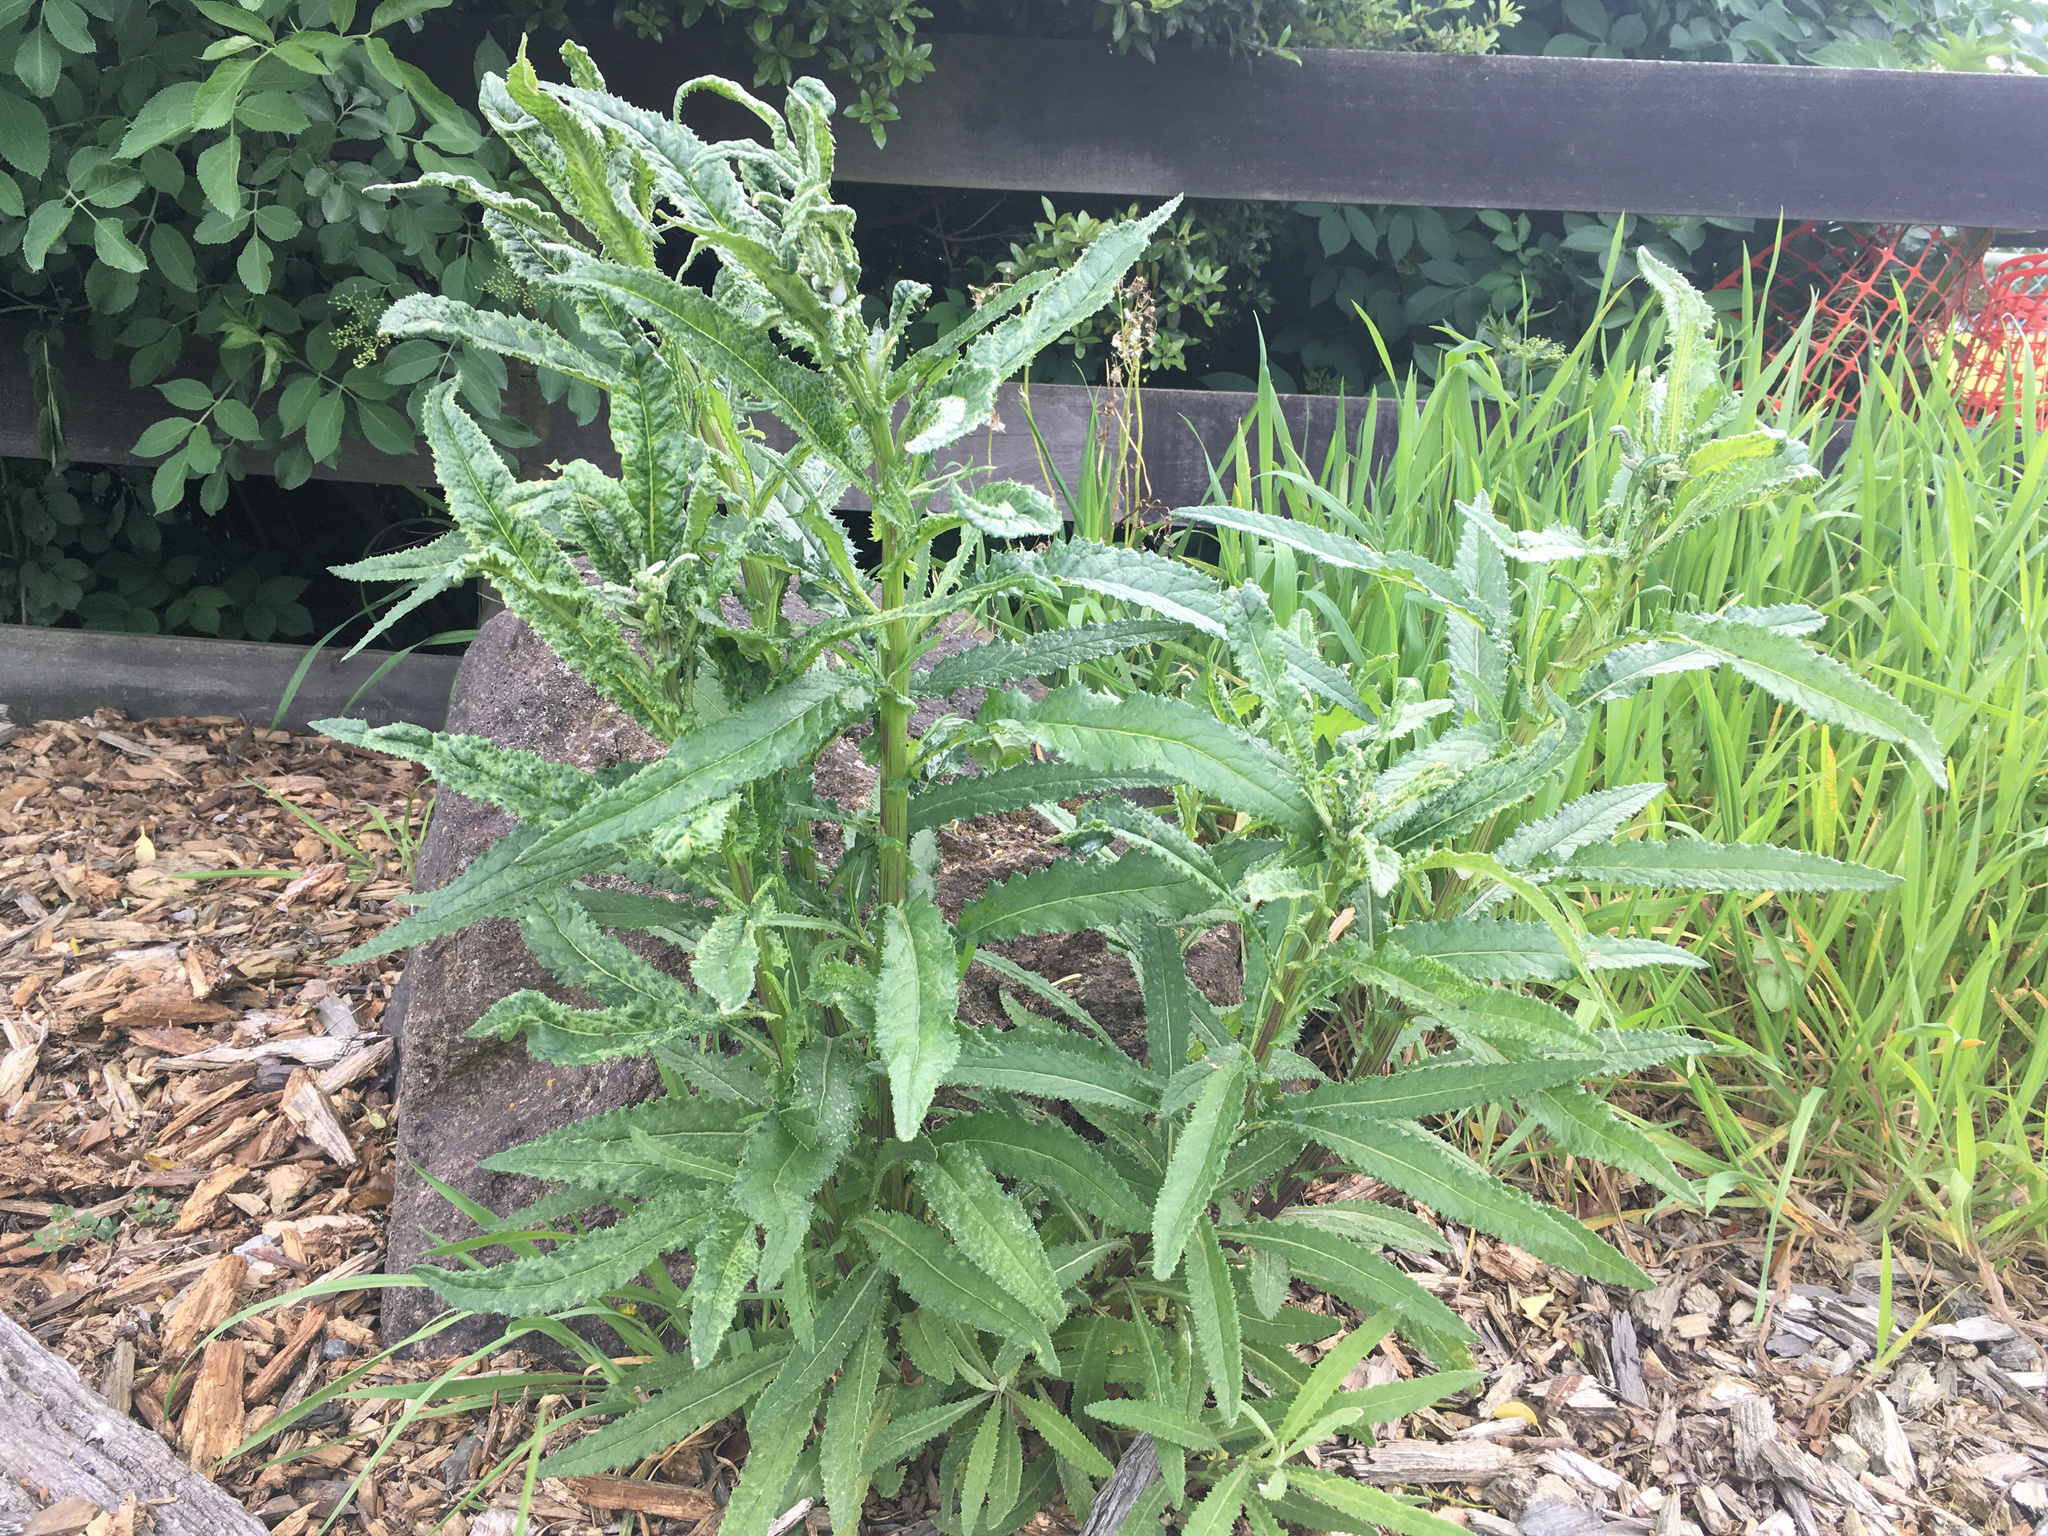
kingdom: Plantae
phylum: Tracheophyta
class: Magnoliopsida
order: Asterales
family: Asteraceae
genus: Senecio
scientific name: Senecio minimus
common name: Toothed fireweed
